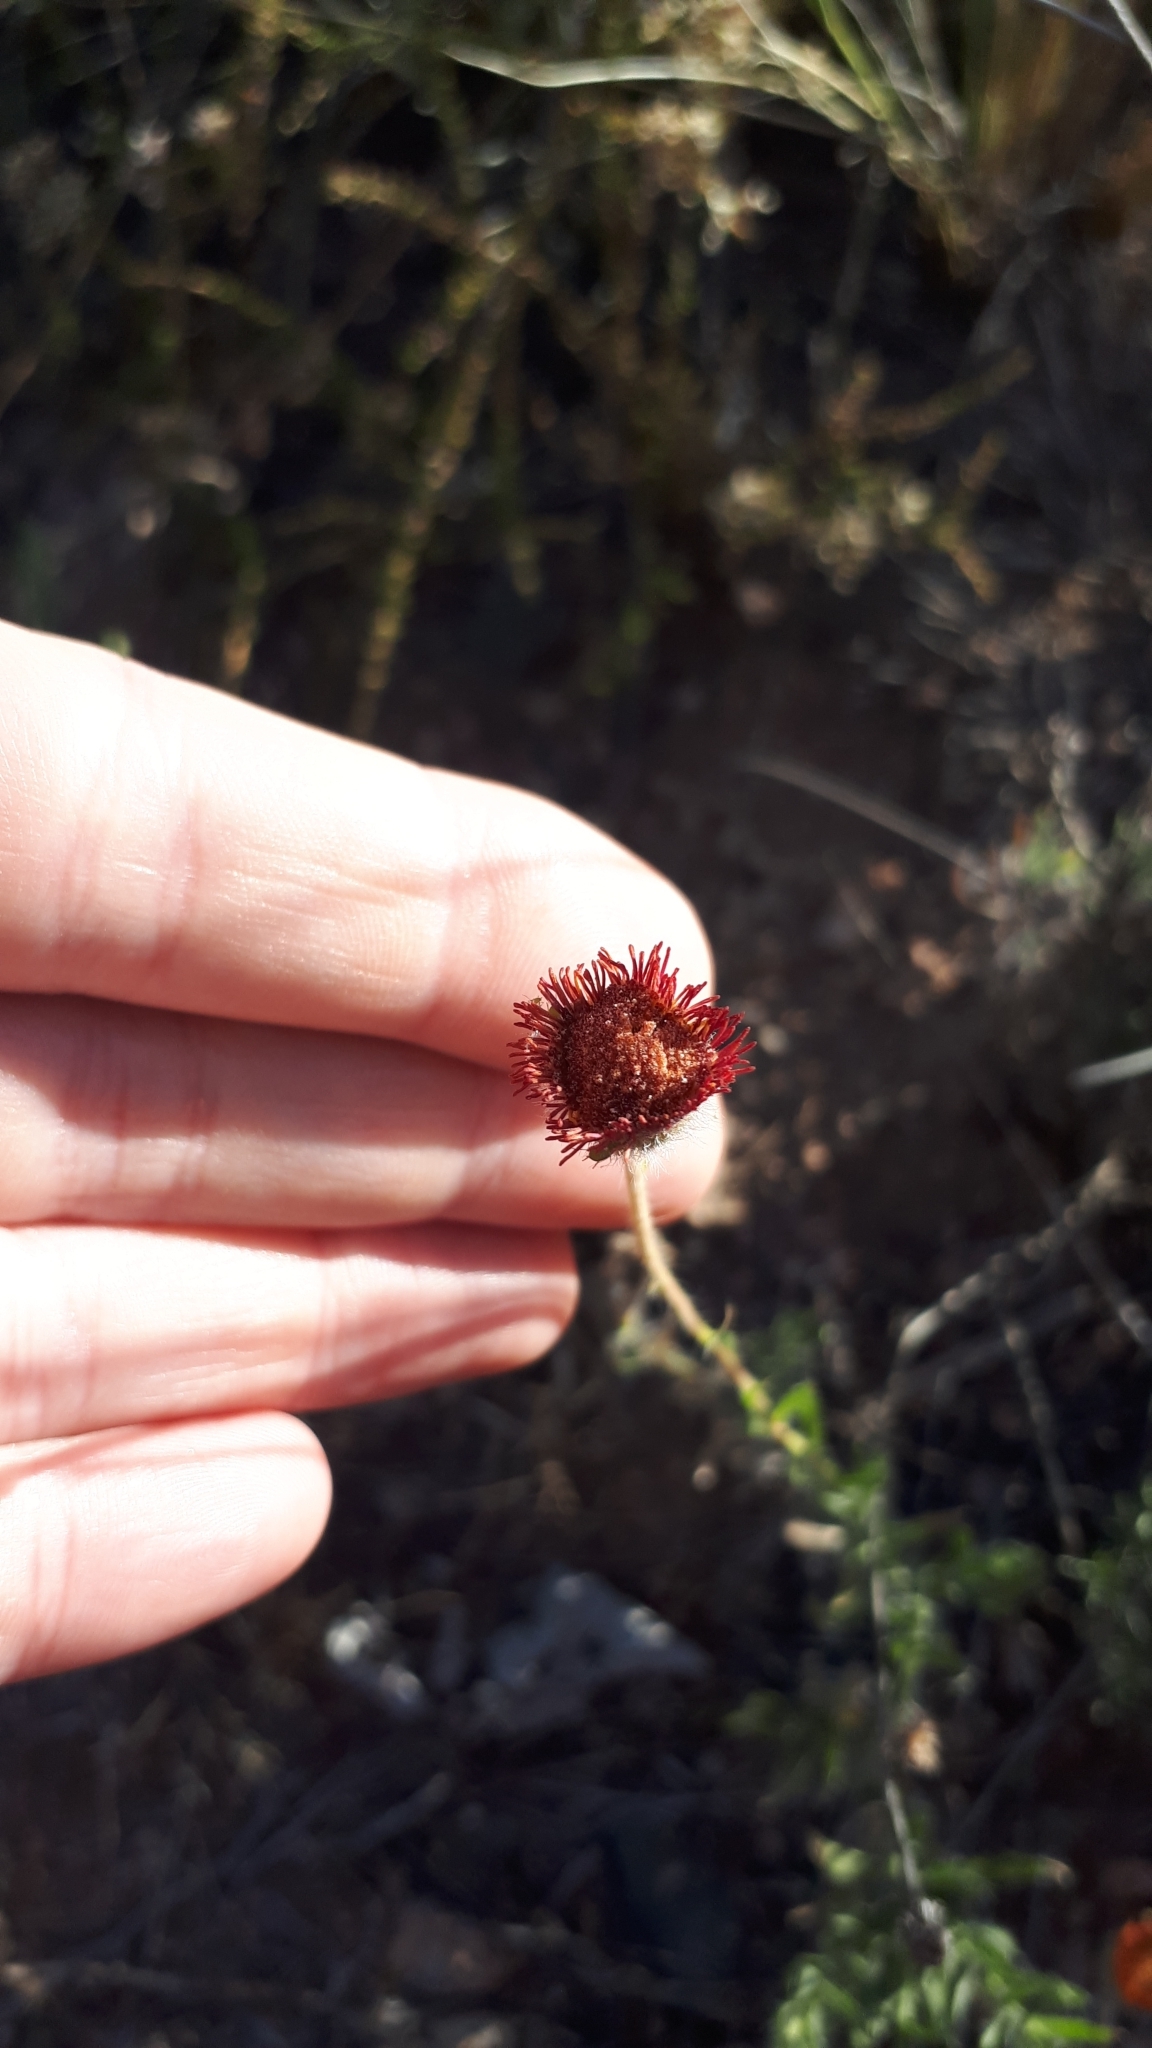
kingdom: Plantae
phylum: Tracheophyta
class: Magnoliopsida
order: Asterales
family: Asteraceae
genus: Hysterionica
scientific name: Hysterionica jasionoides
